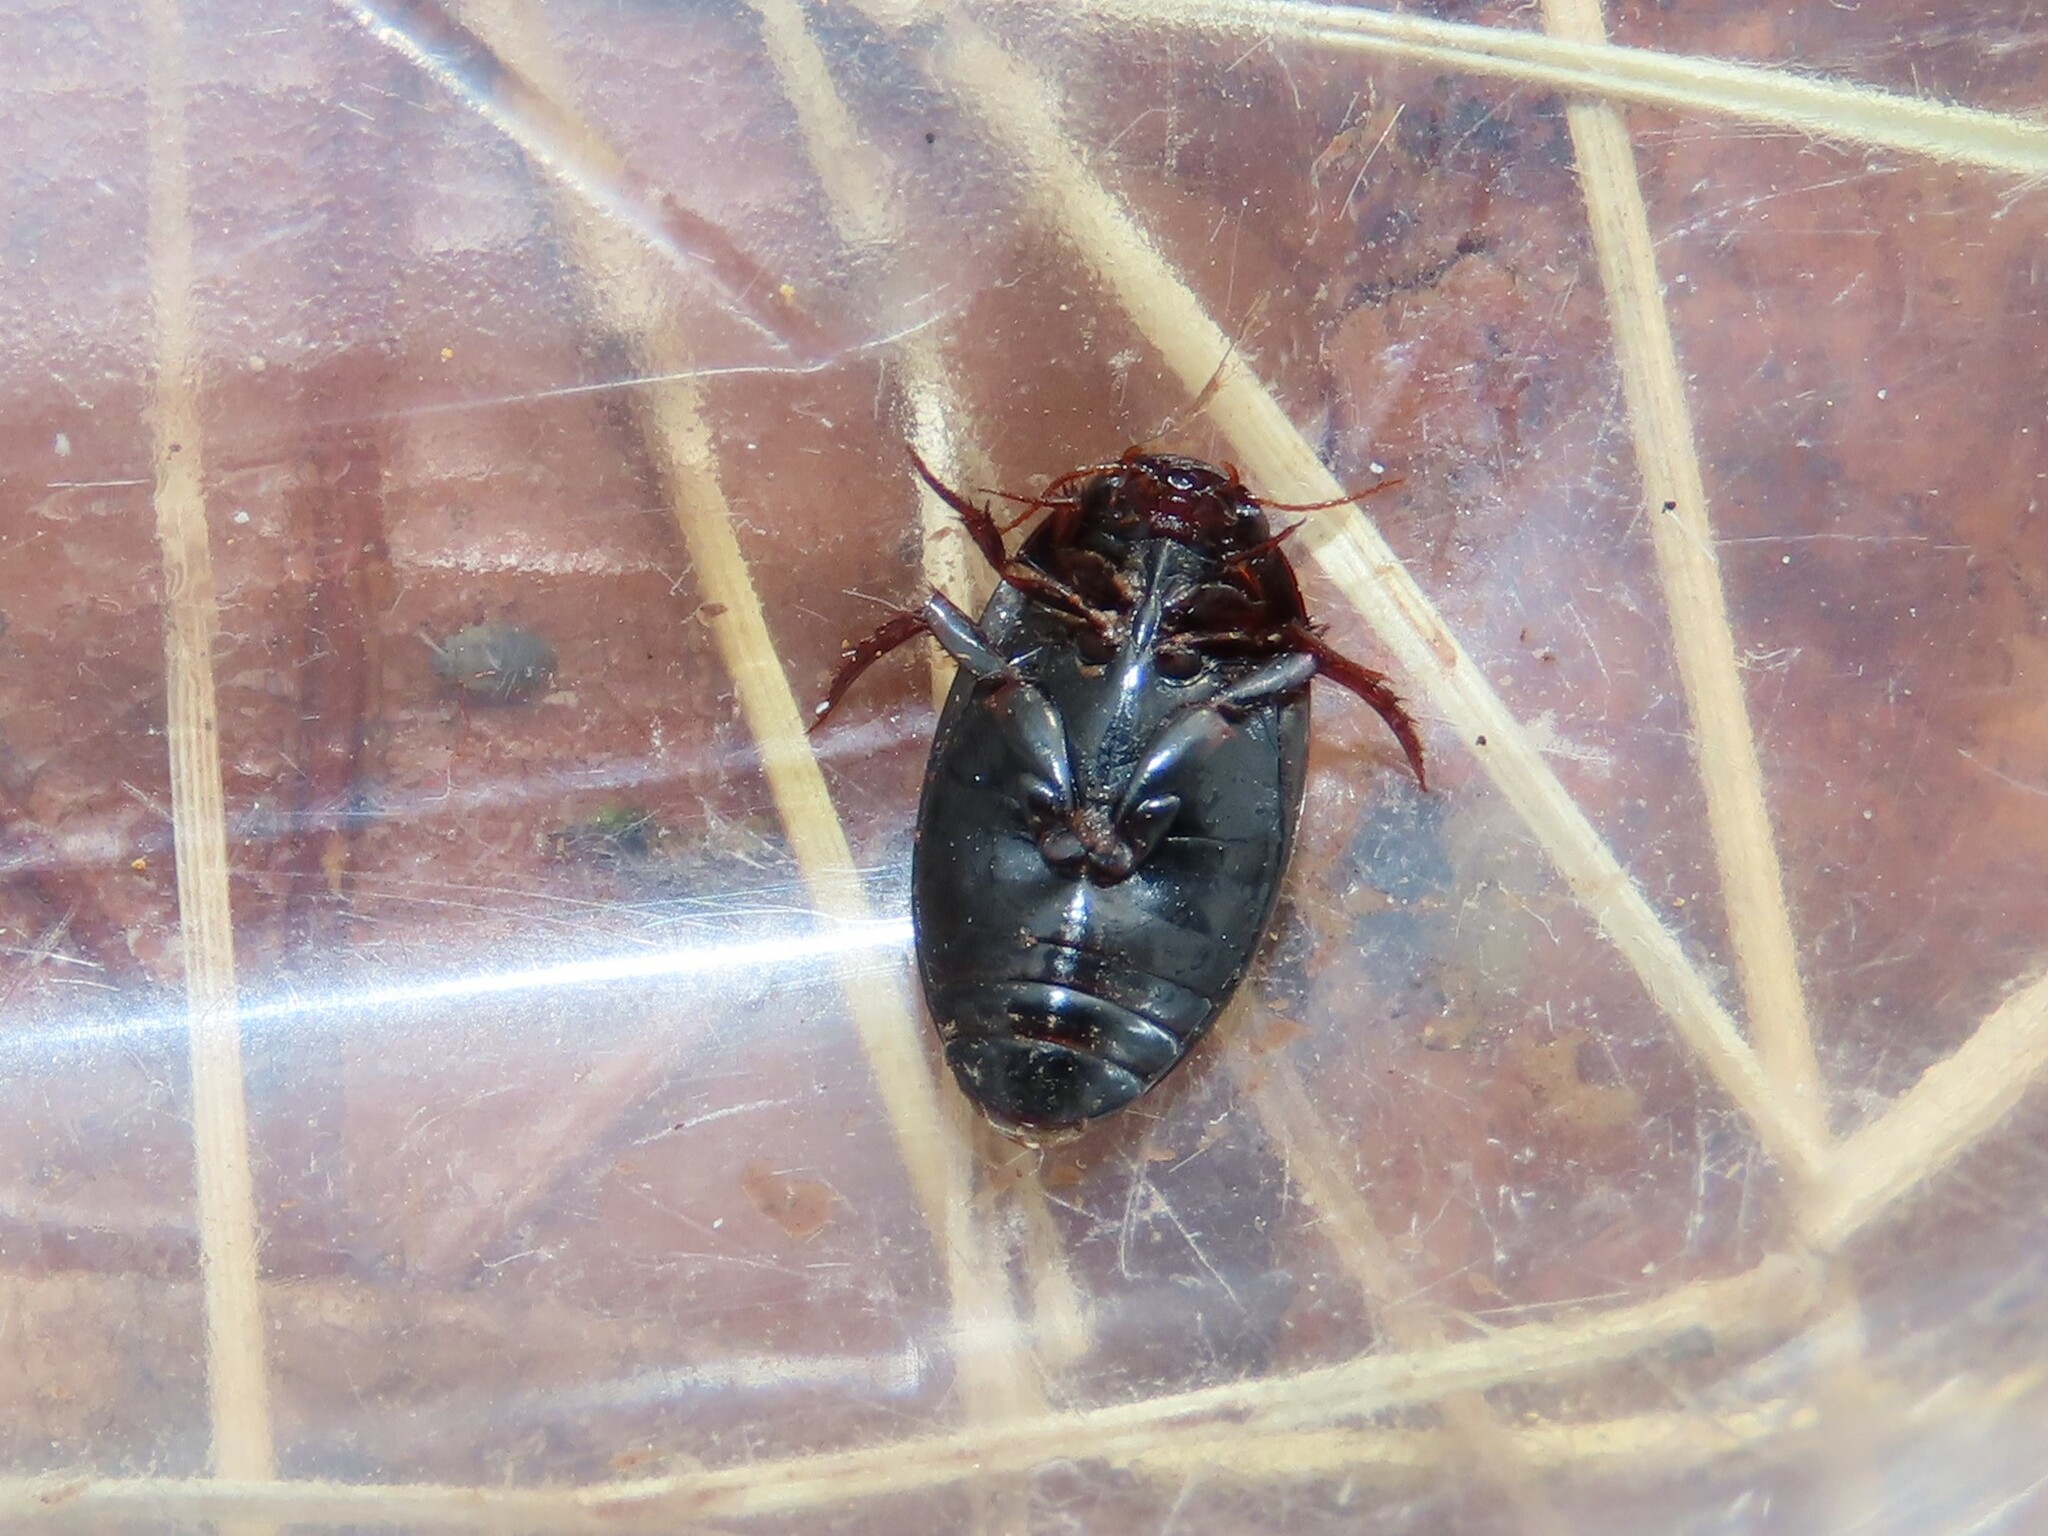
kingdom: Animalia
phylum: Arthropoda
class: Insecta
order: Coleoptera
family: Dytiscidae
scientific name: Dytiscidae
